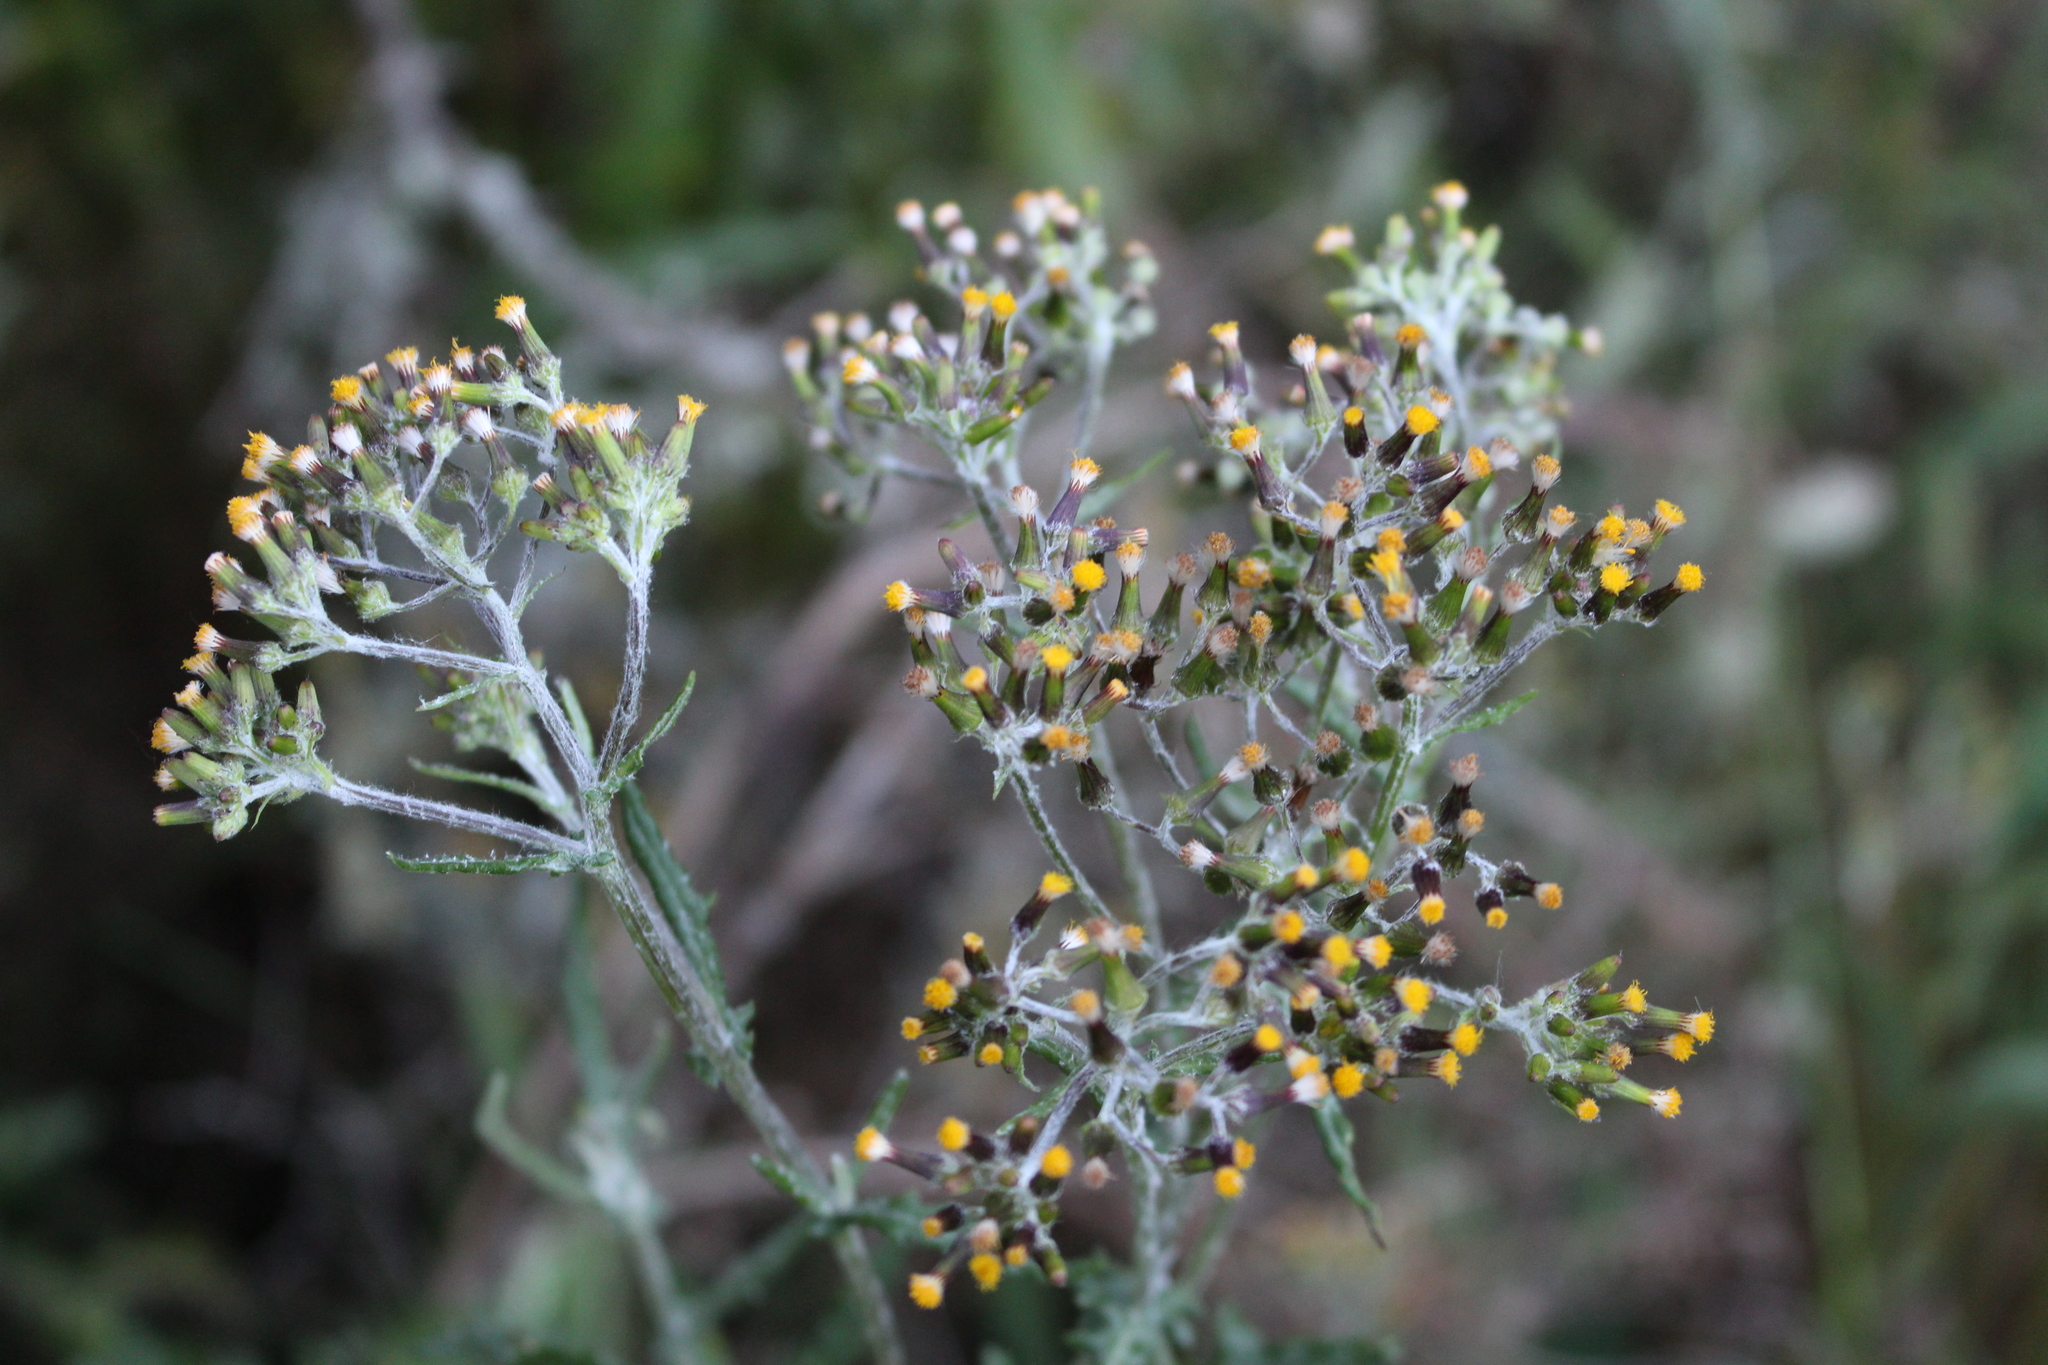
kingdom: Plantae
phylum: Tracheophyta
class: Magnoliopsida
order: Asterales
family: Asteraceae
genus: Senecio
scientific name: Senecio glomeratus
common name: Cutleaf burnweed
